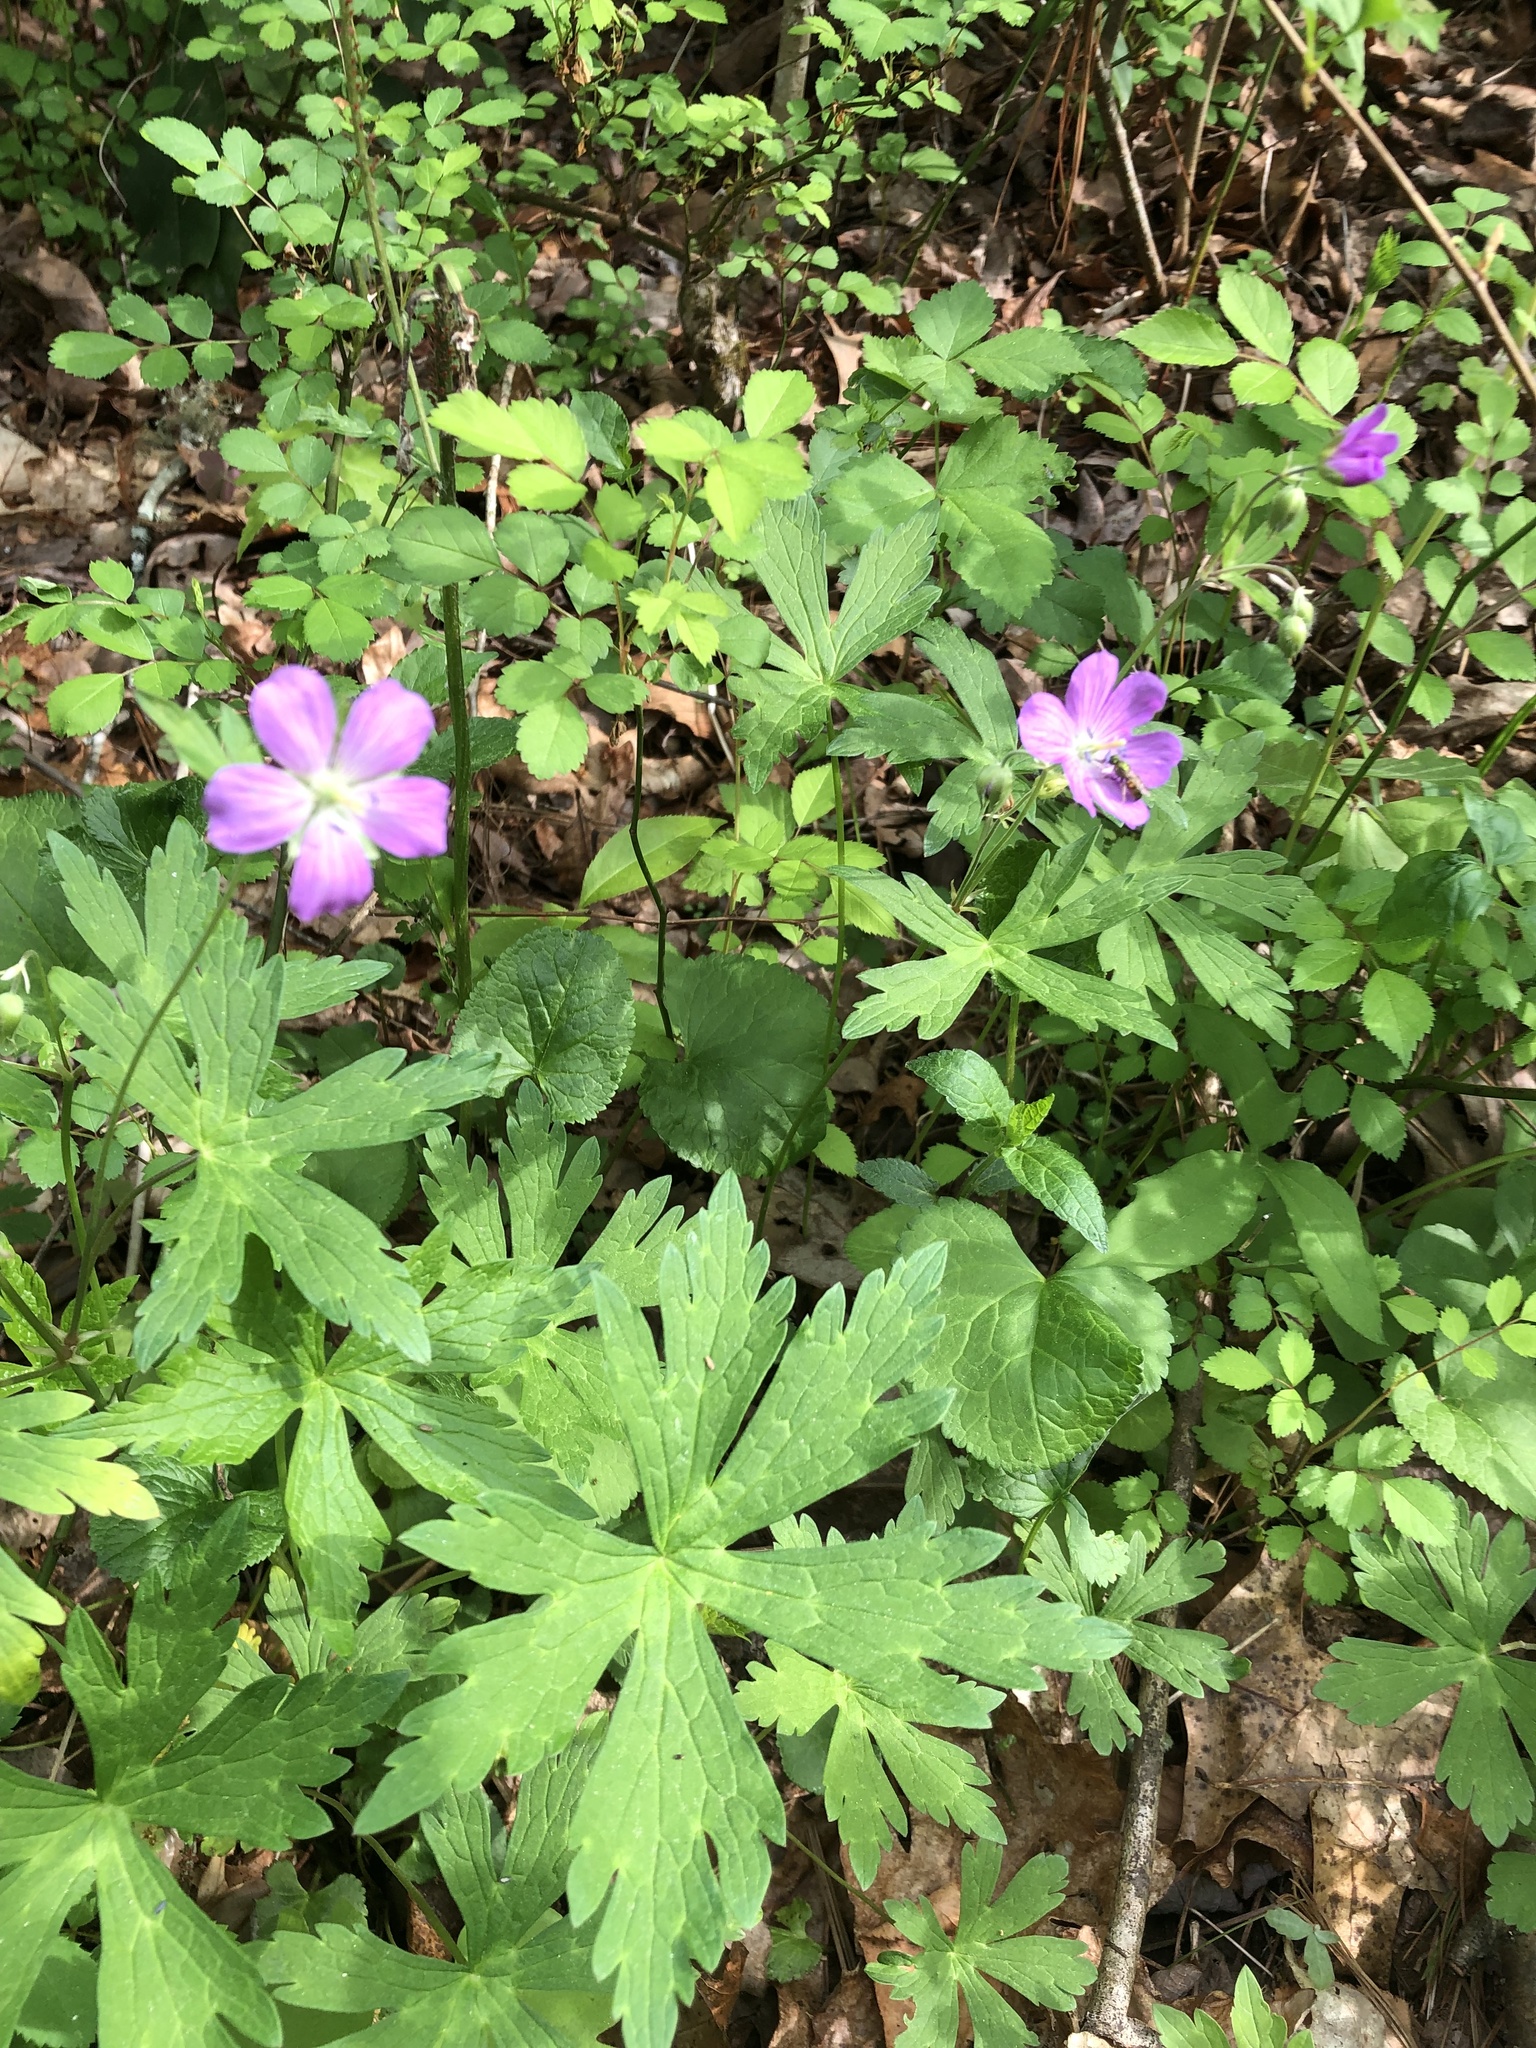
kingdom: Plantae
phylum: Tracheophyta
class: Magnoliopsida
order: Geraniales
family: Geraniaceae
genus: Geranium
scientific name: Geranium maculatum
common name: Spotted geranium
